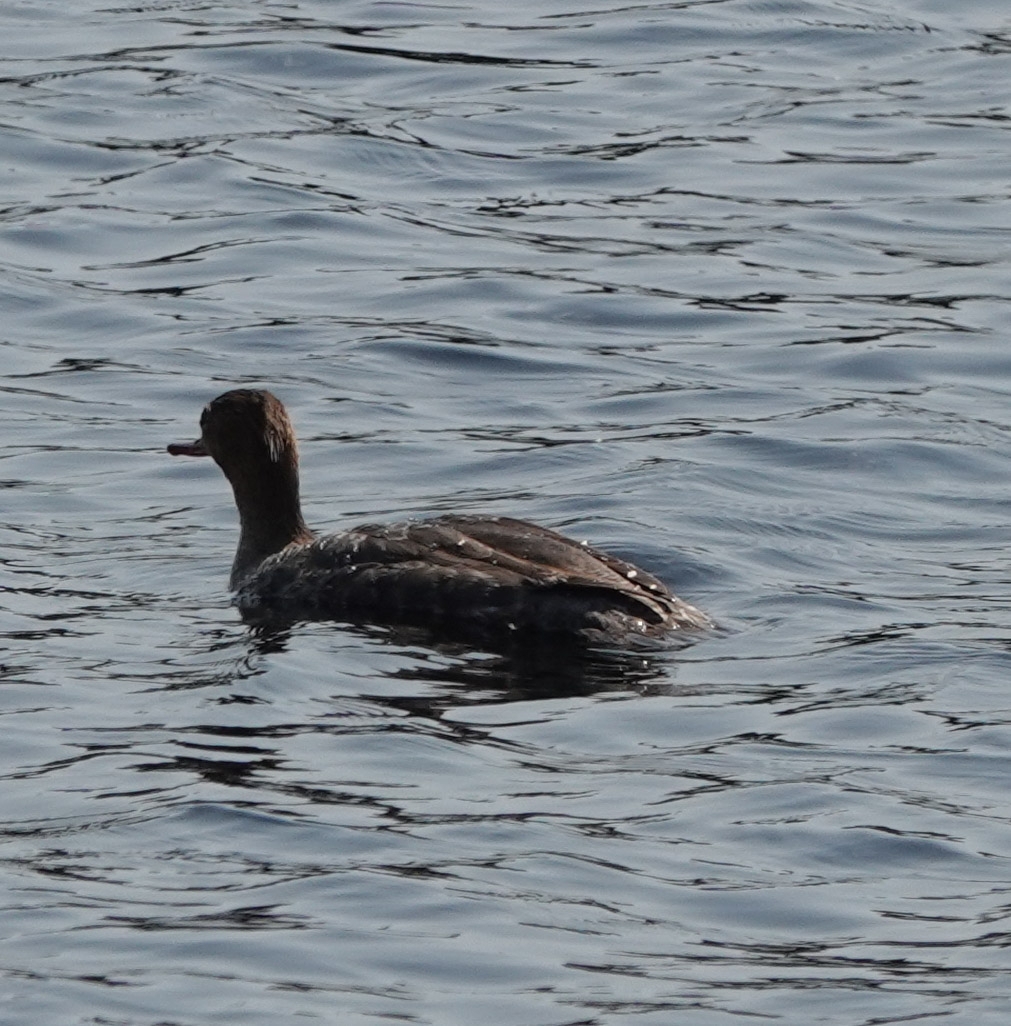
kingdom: Animalia
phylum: Chordata
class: Aves
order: Anseriformes
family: Anatidae
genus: Mergus
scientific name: Mergus serrator
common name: Red-breasted merganser
